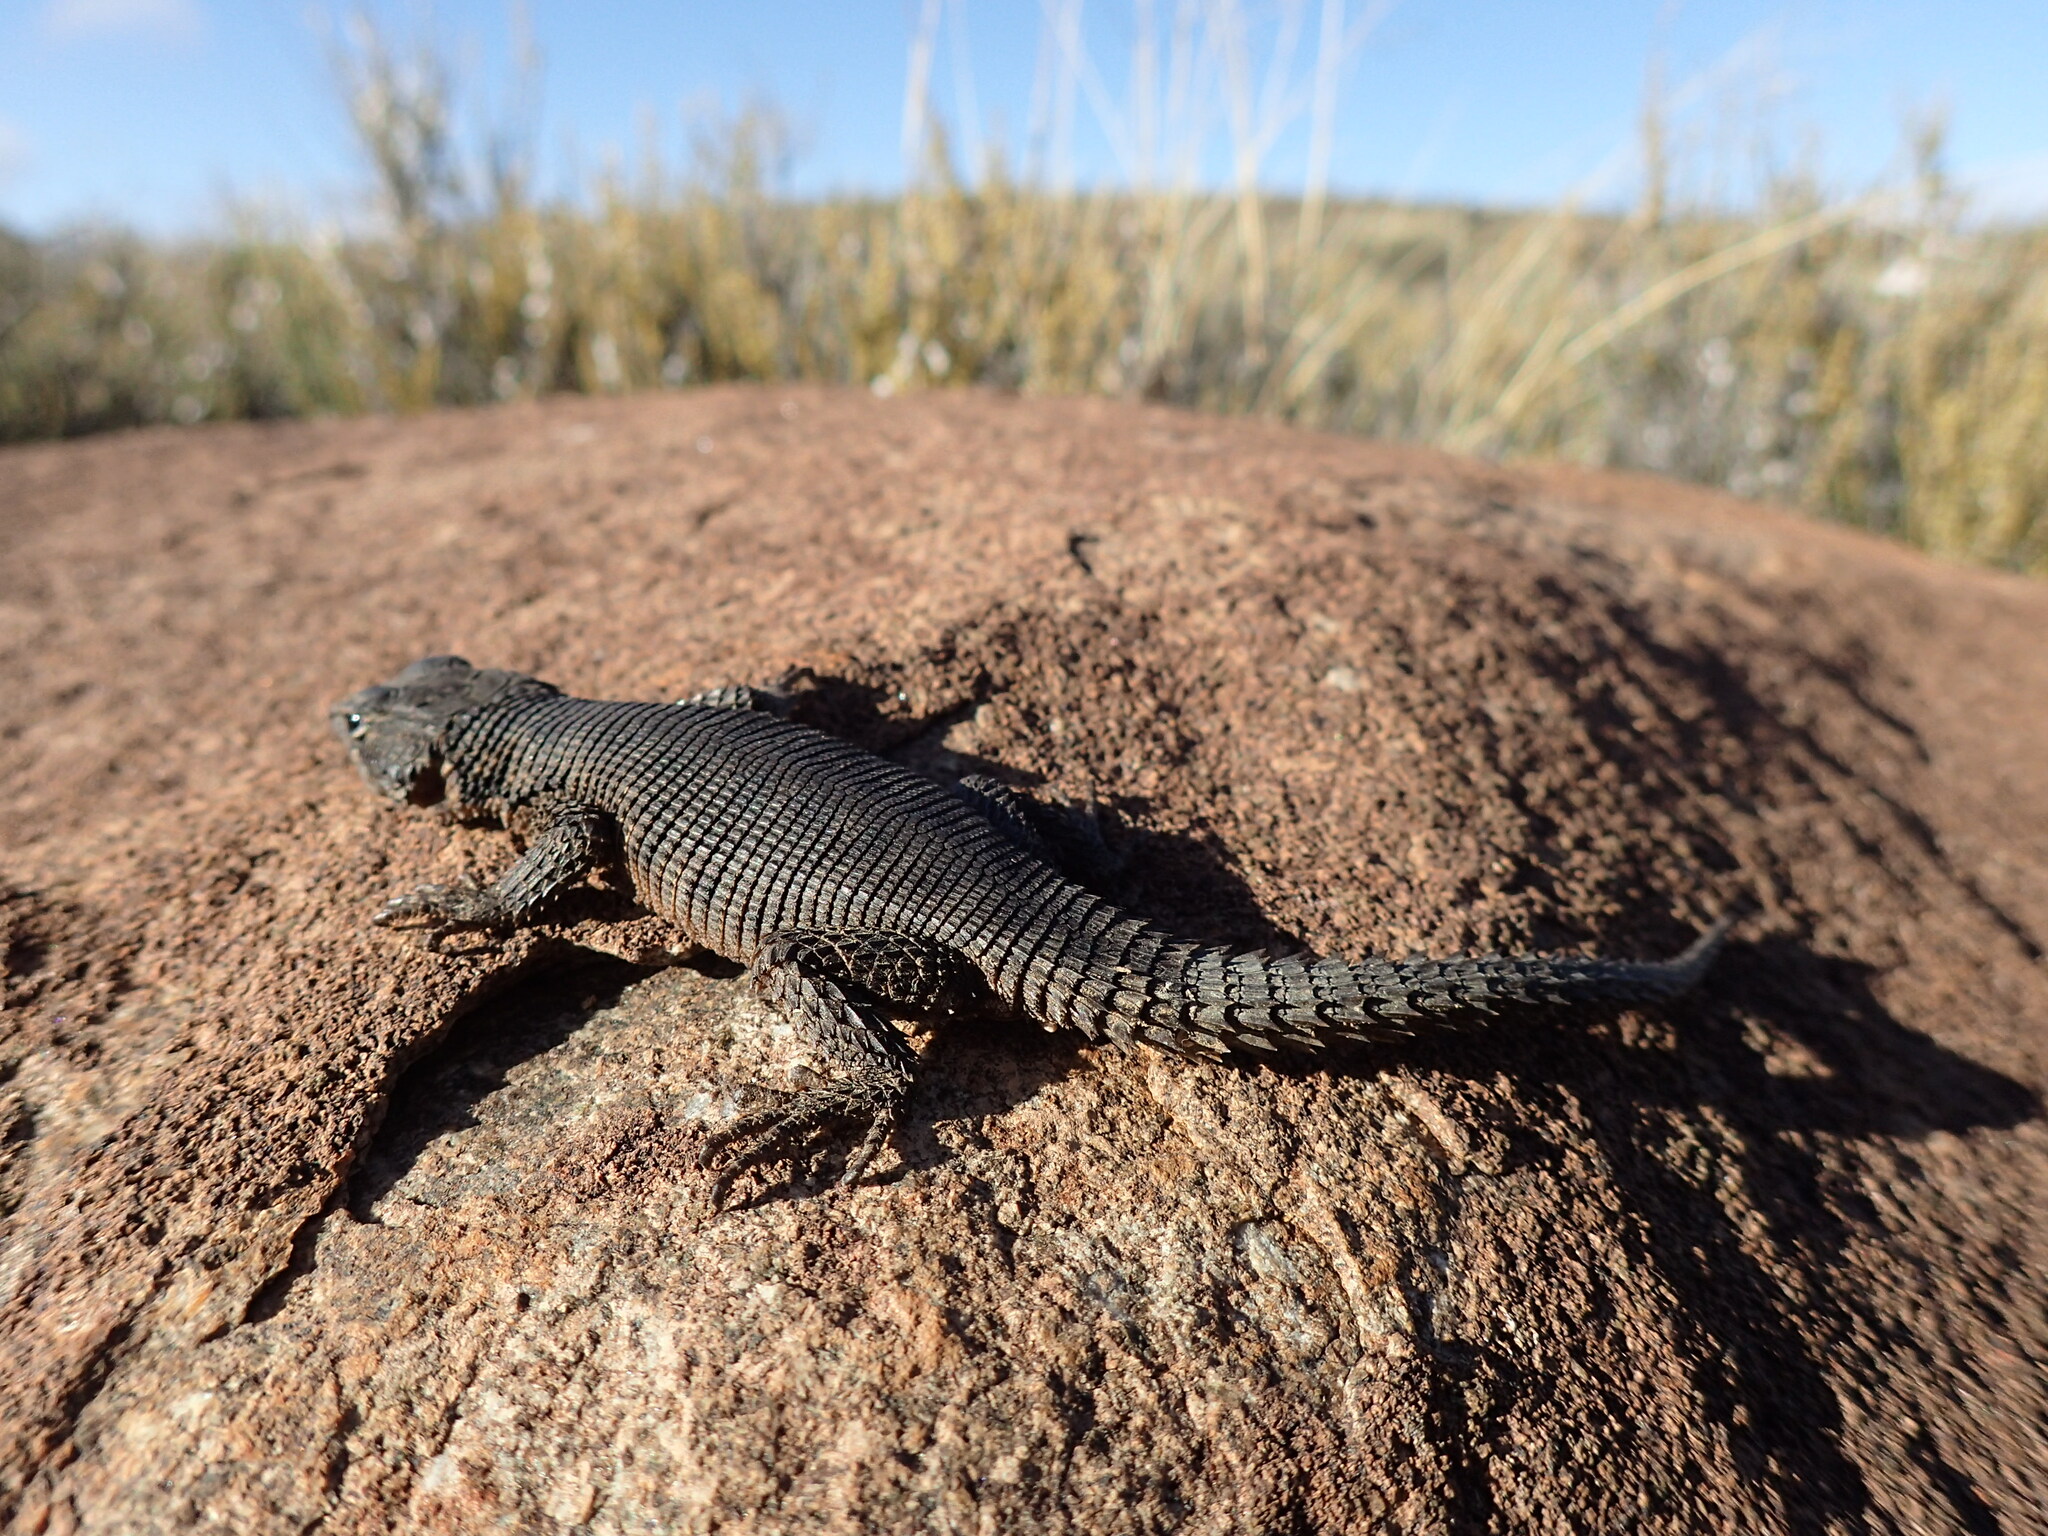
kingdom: Animalia
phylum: Chordata
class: Squamata
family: Cordylidae
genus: Karusasaurus
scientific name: Karusasaurus polyzonus
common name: Karoo girdled lizard
